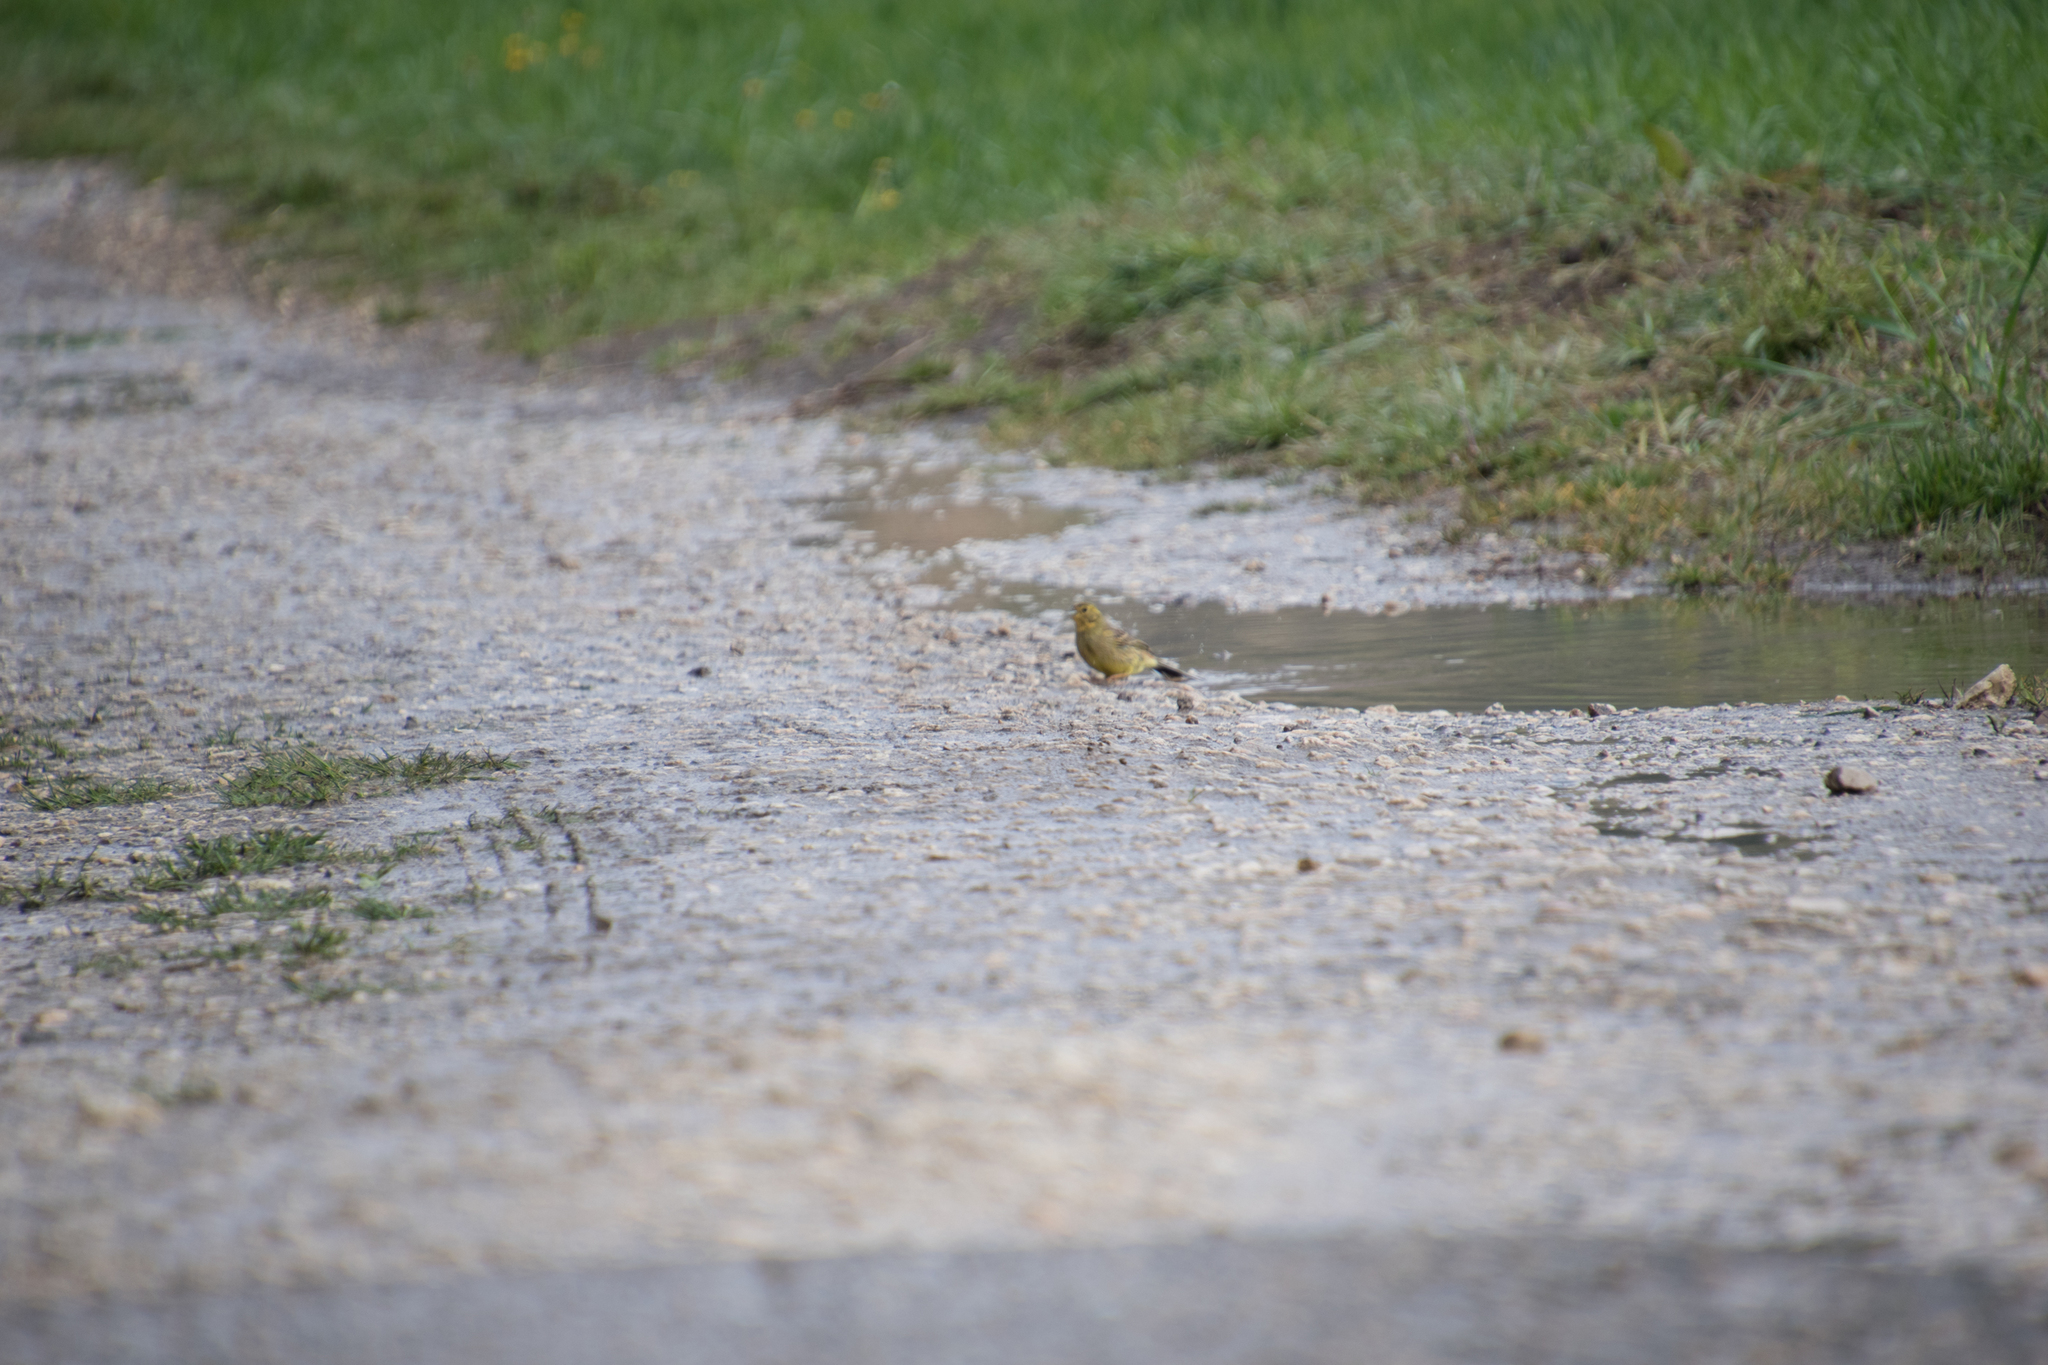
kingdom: Animalia
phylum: Chordata
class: Aves
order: Passeriformes
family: Emberizidae
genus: Emberiza
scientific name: Emberiza citrinella
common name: Yellowhammer
